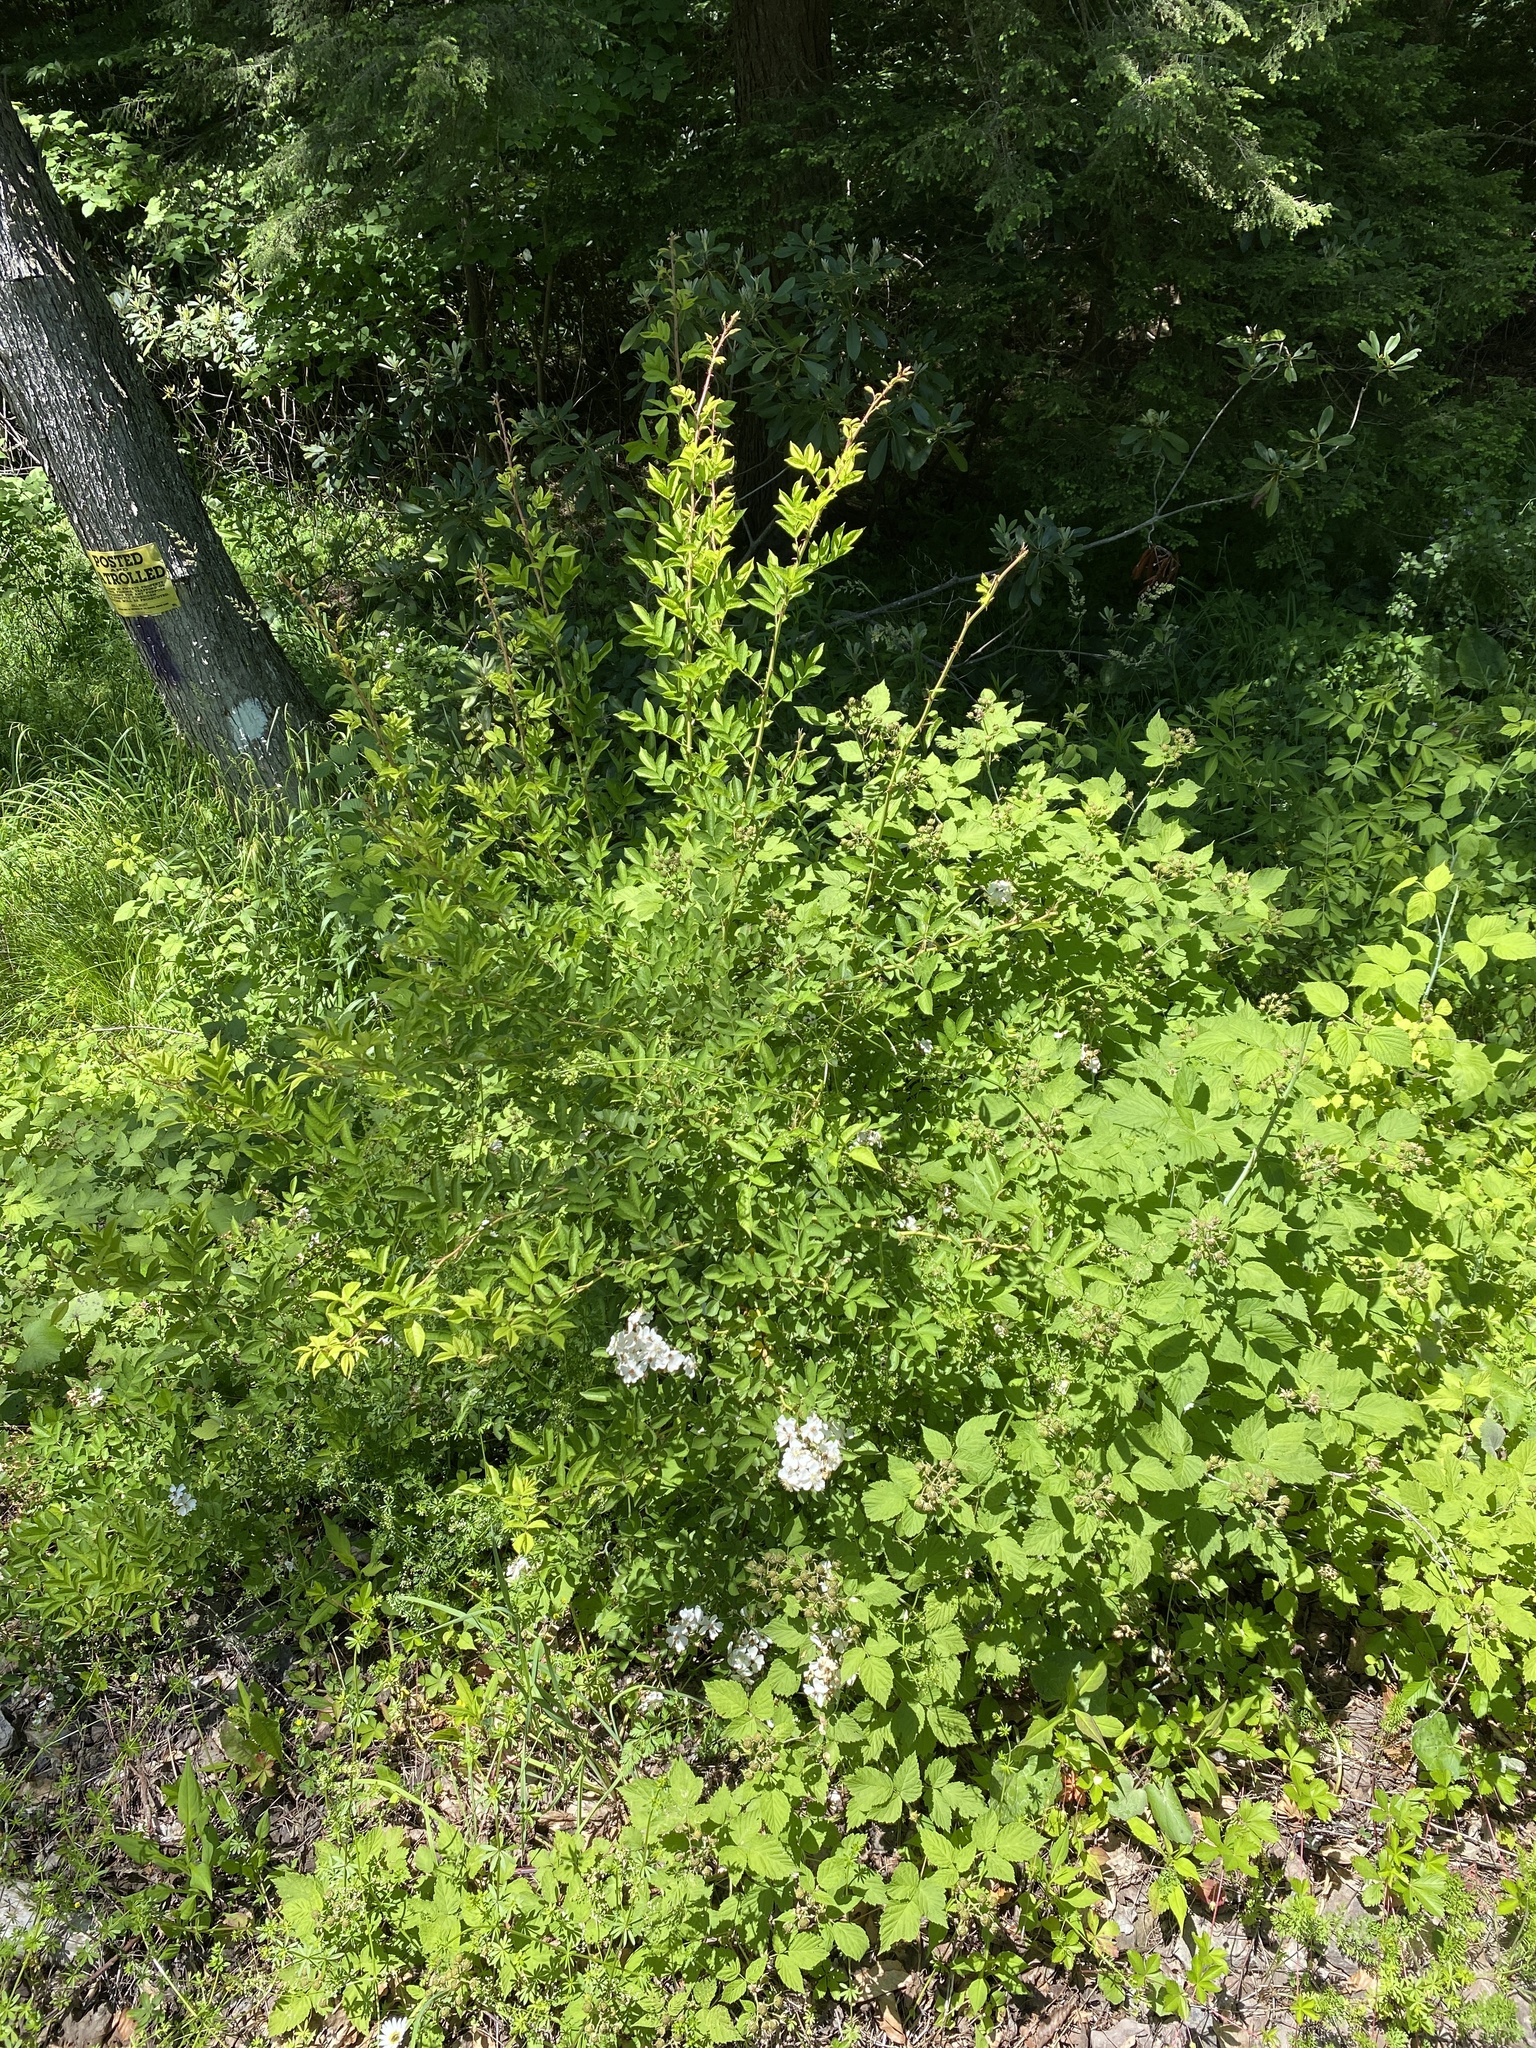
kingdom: Plantae
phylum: Tracheophyta
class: Magnoliopsida
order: Rosales
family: Rosaceae
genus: Rosa
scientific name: Rosa multiflora
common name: Multiflora rose
